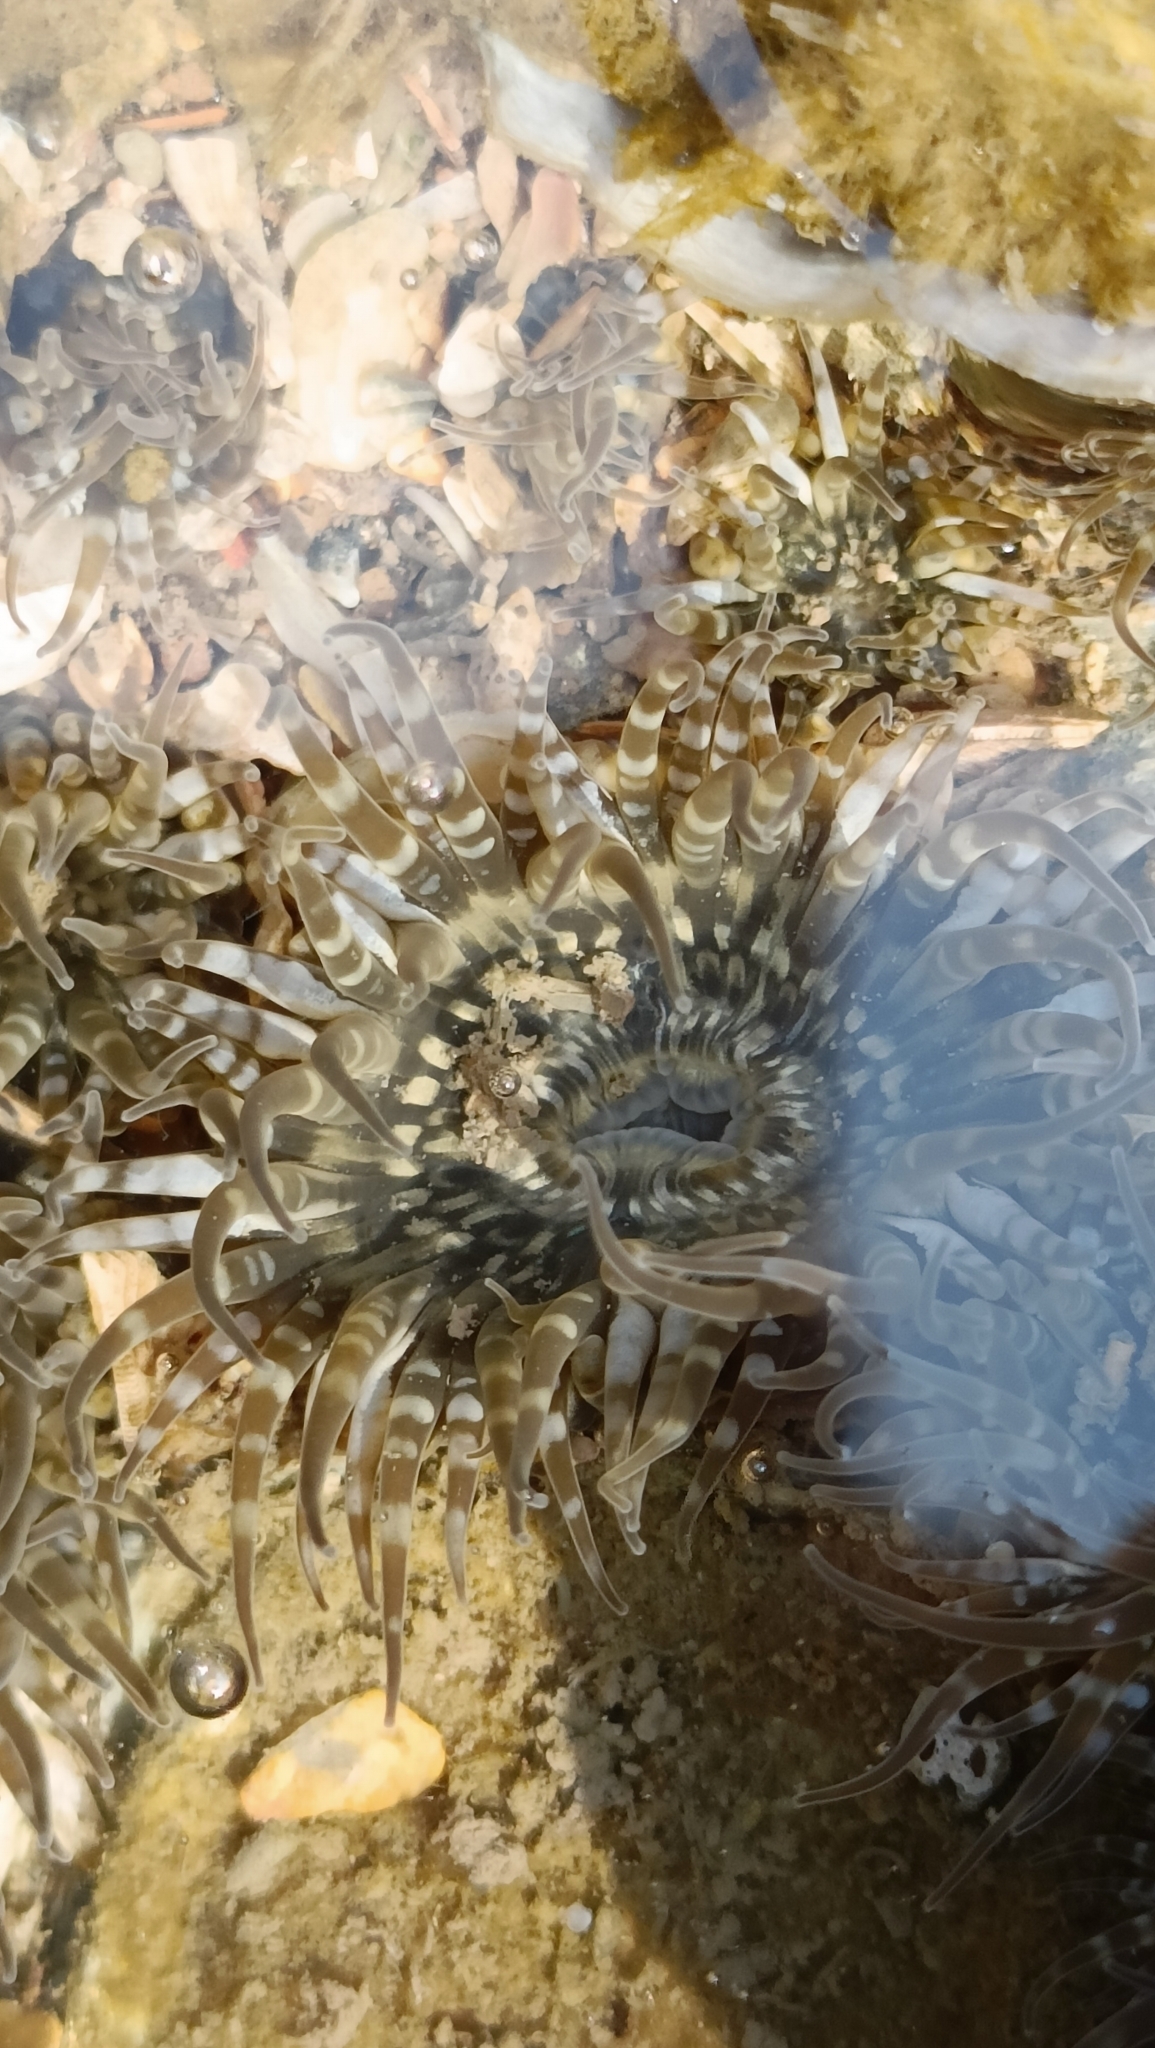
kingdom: Animalia
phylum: Cnidaria
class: Anthozoa
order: Actiniaria
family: Actiniidae
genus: Anthopleura
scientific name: Anthopleura dixoniana
